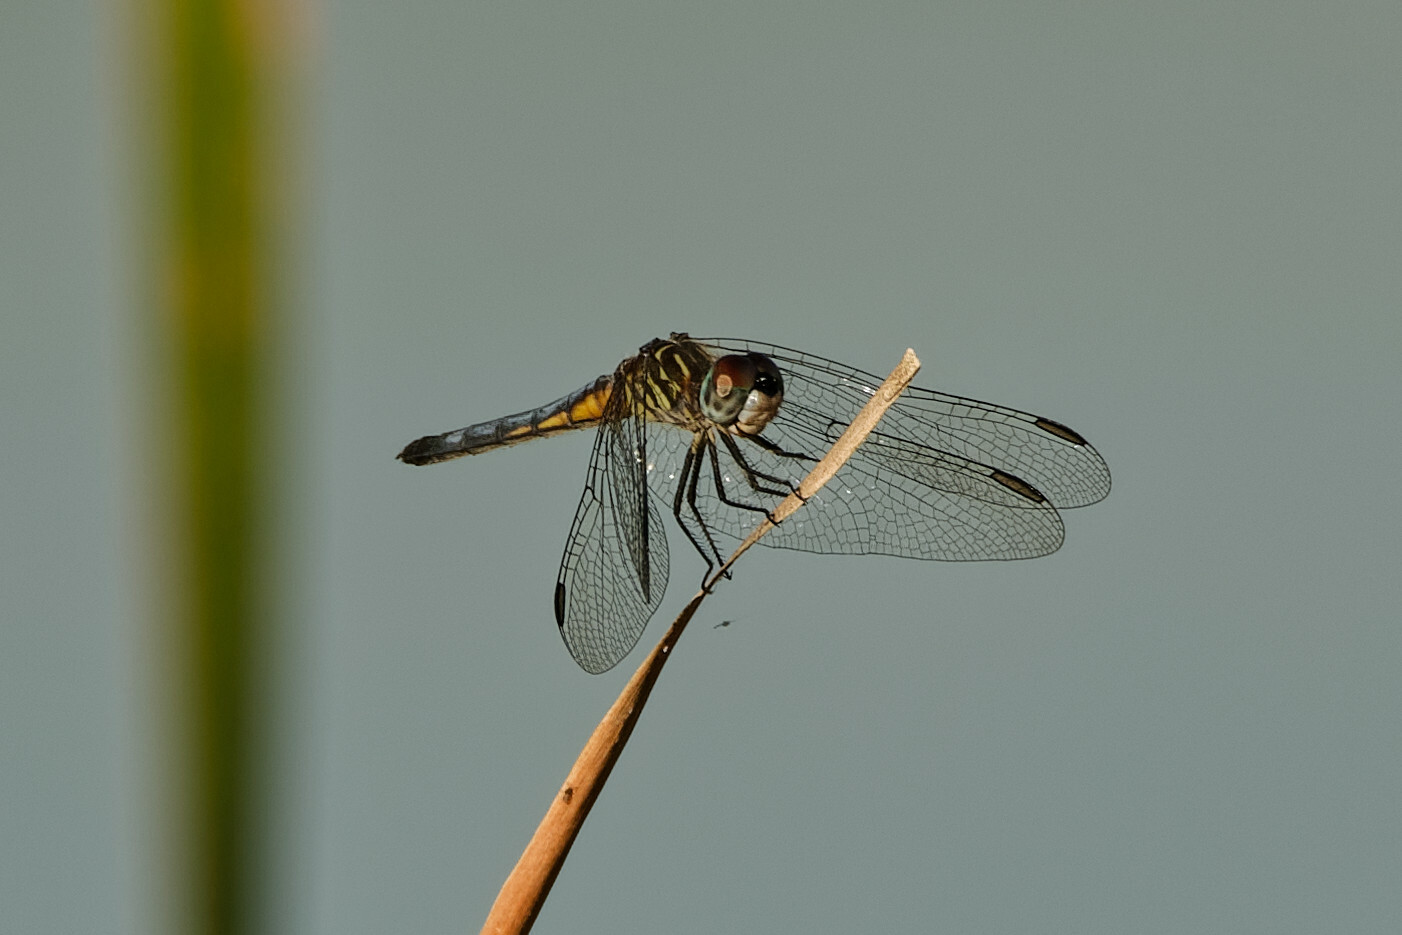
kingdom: Animalia
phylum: Arthropoda
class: Insecta
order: Odonata
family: Libellulidae
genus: Pachydiplax
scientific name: Pachydiplax longipennis
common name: Blue dasher
